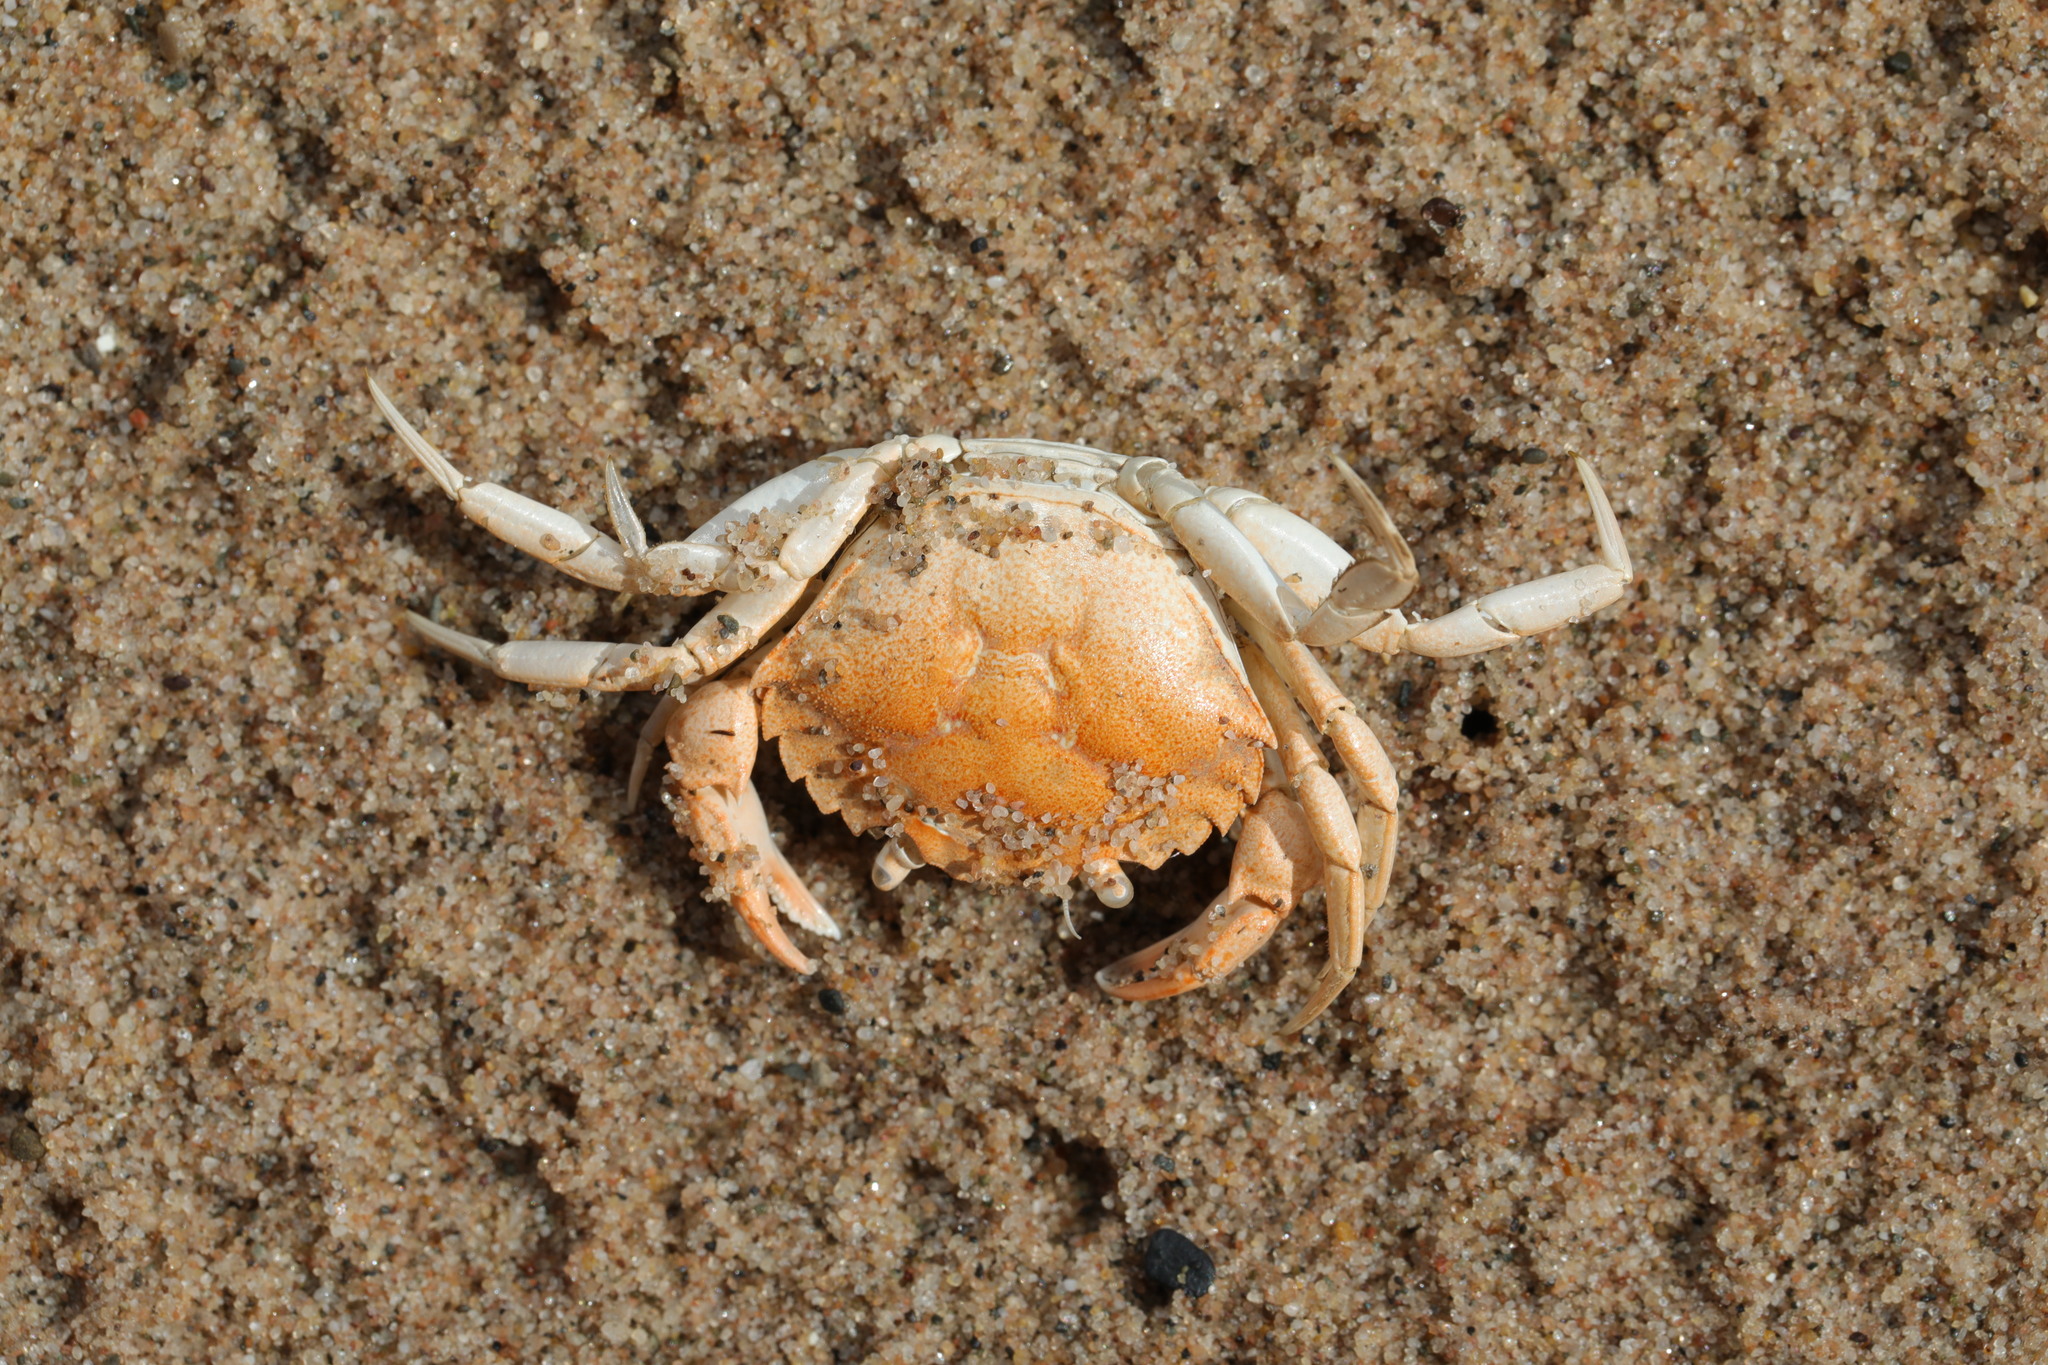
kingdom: Animalia
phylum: Arthropoda
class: Malacostraca
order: Decapoda
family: Carcinidae
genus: Carcinus
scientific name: Carcinus maenas
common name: European green crab
